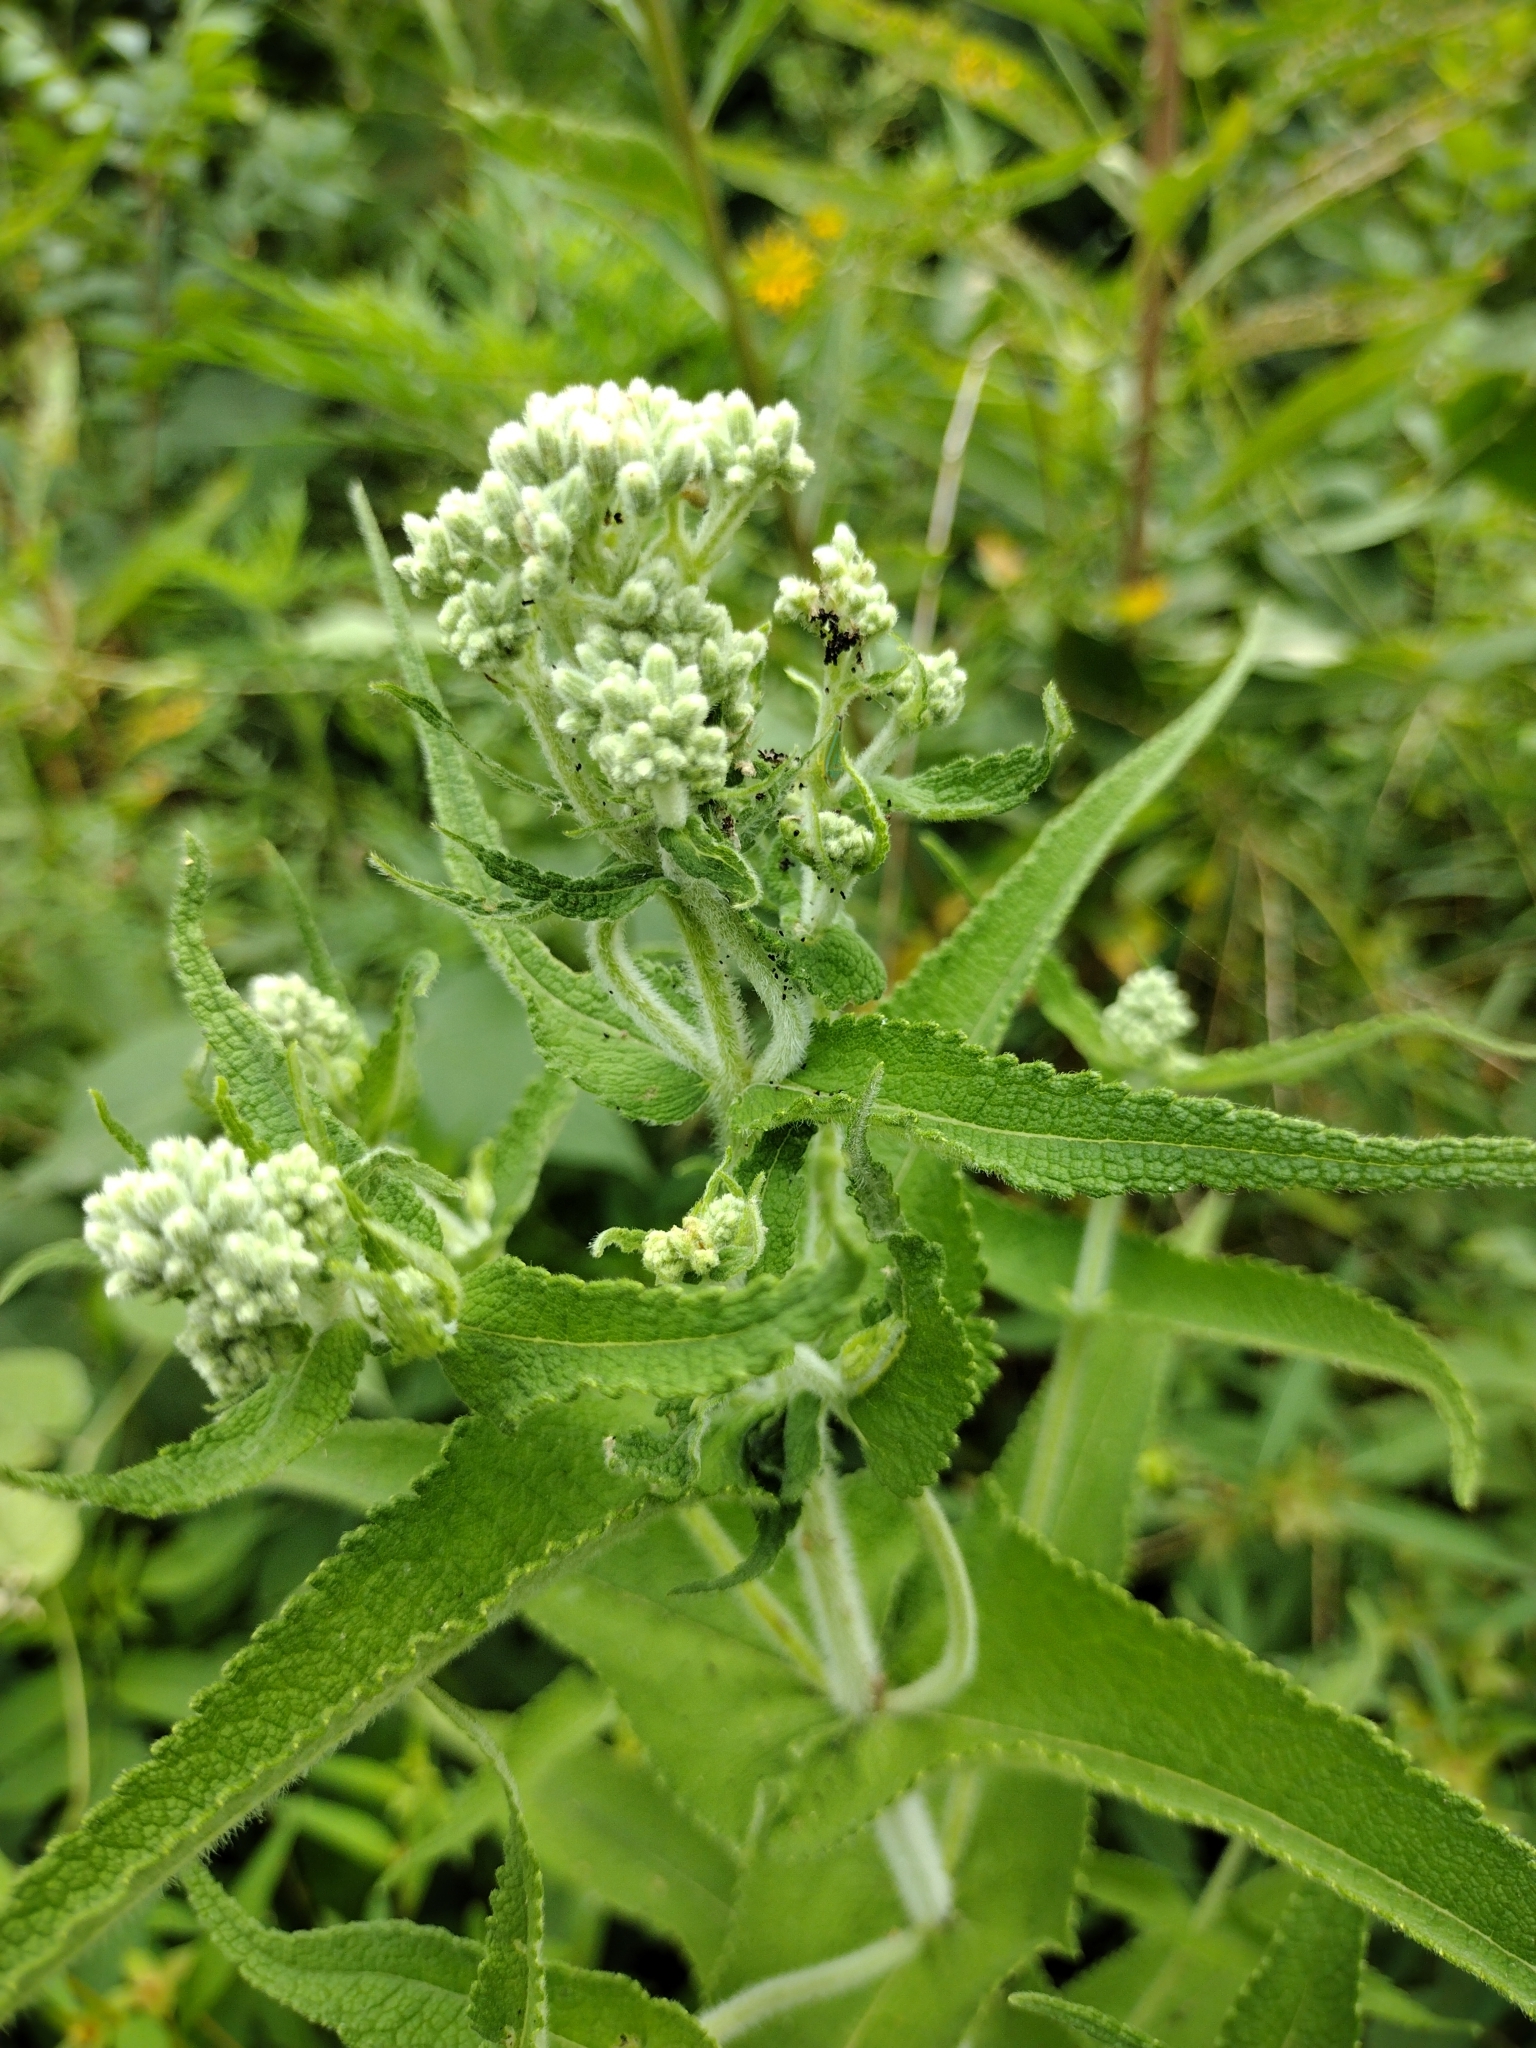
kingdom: Plantae
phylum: Tracheophyta
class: Magnoliopsida
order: Asterales
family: Asteraceae
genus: Eupatorium
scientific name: Eupatorium perfoliatum
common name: Boneset
